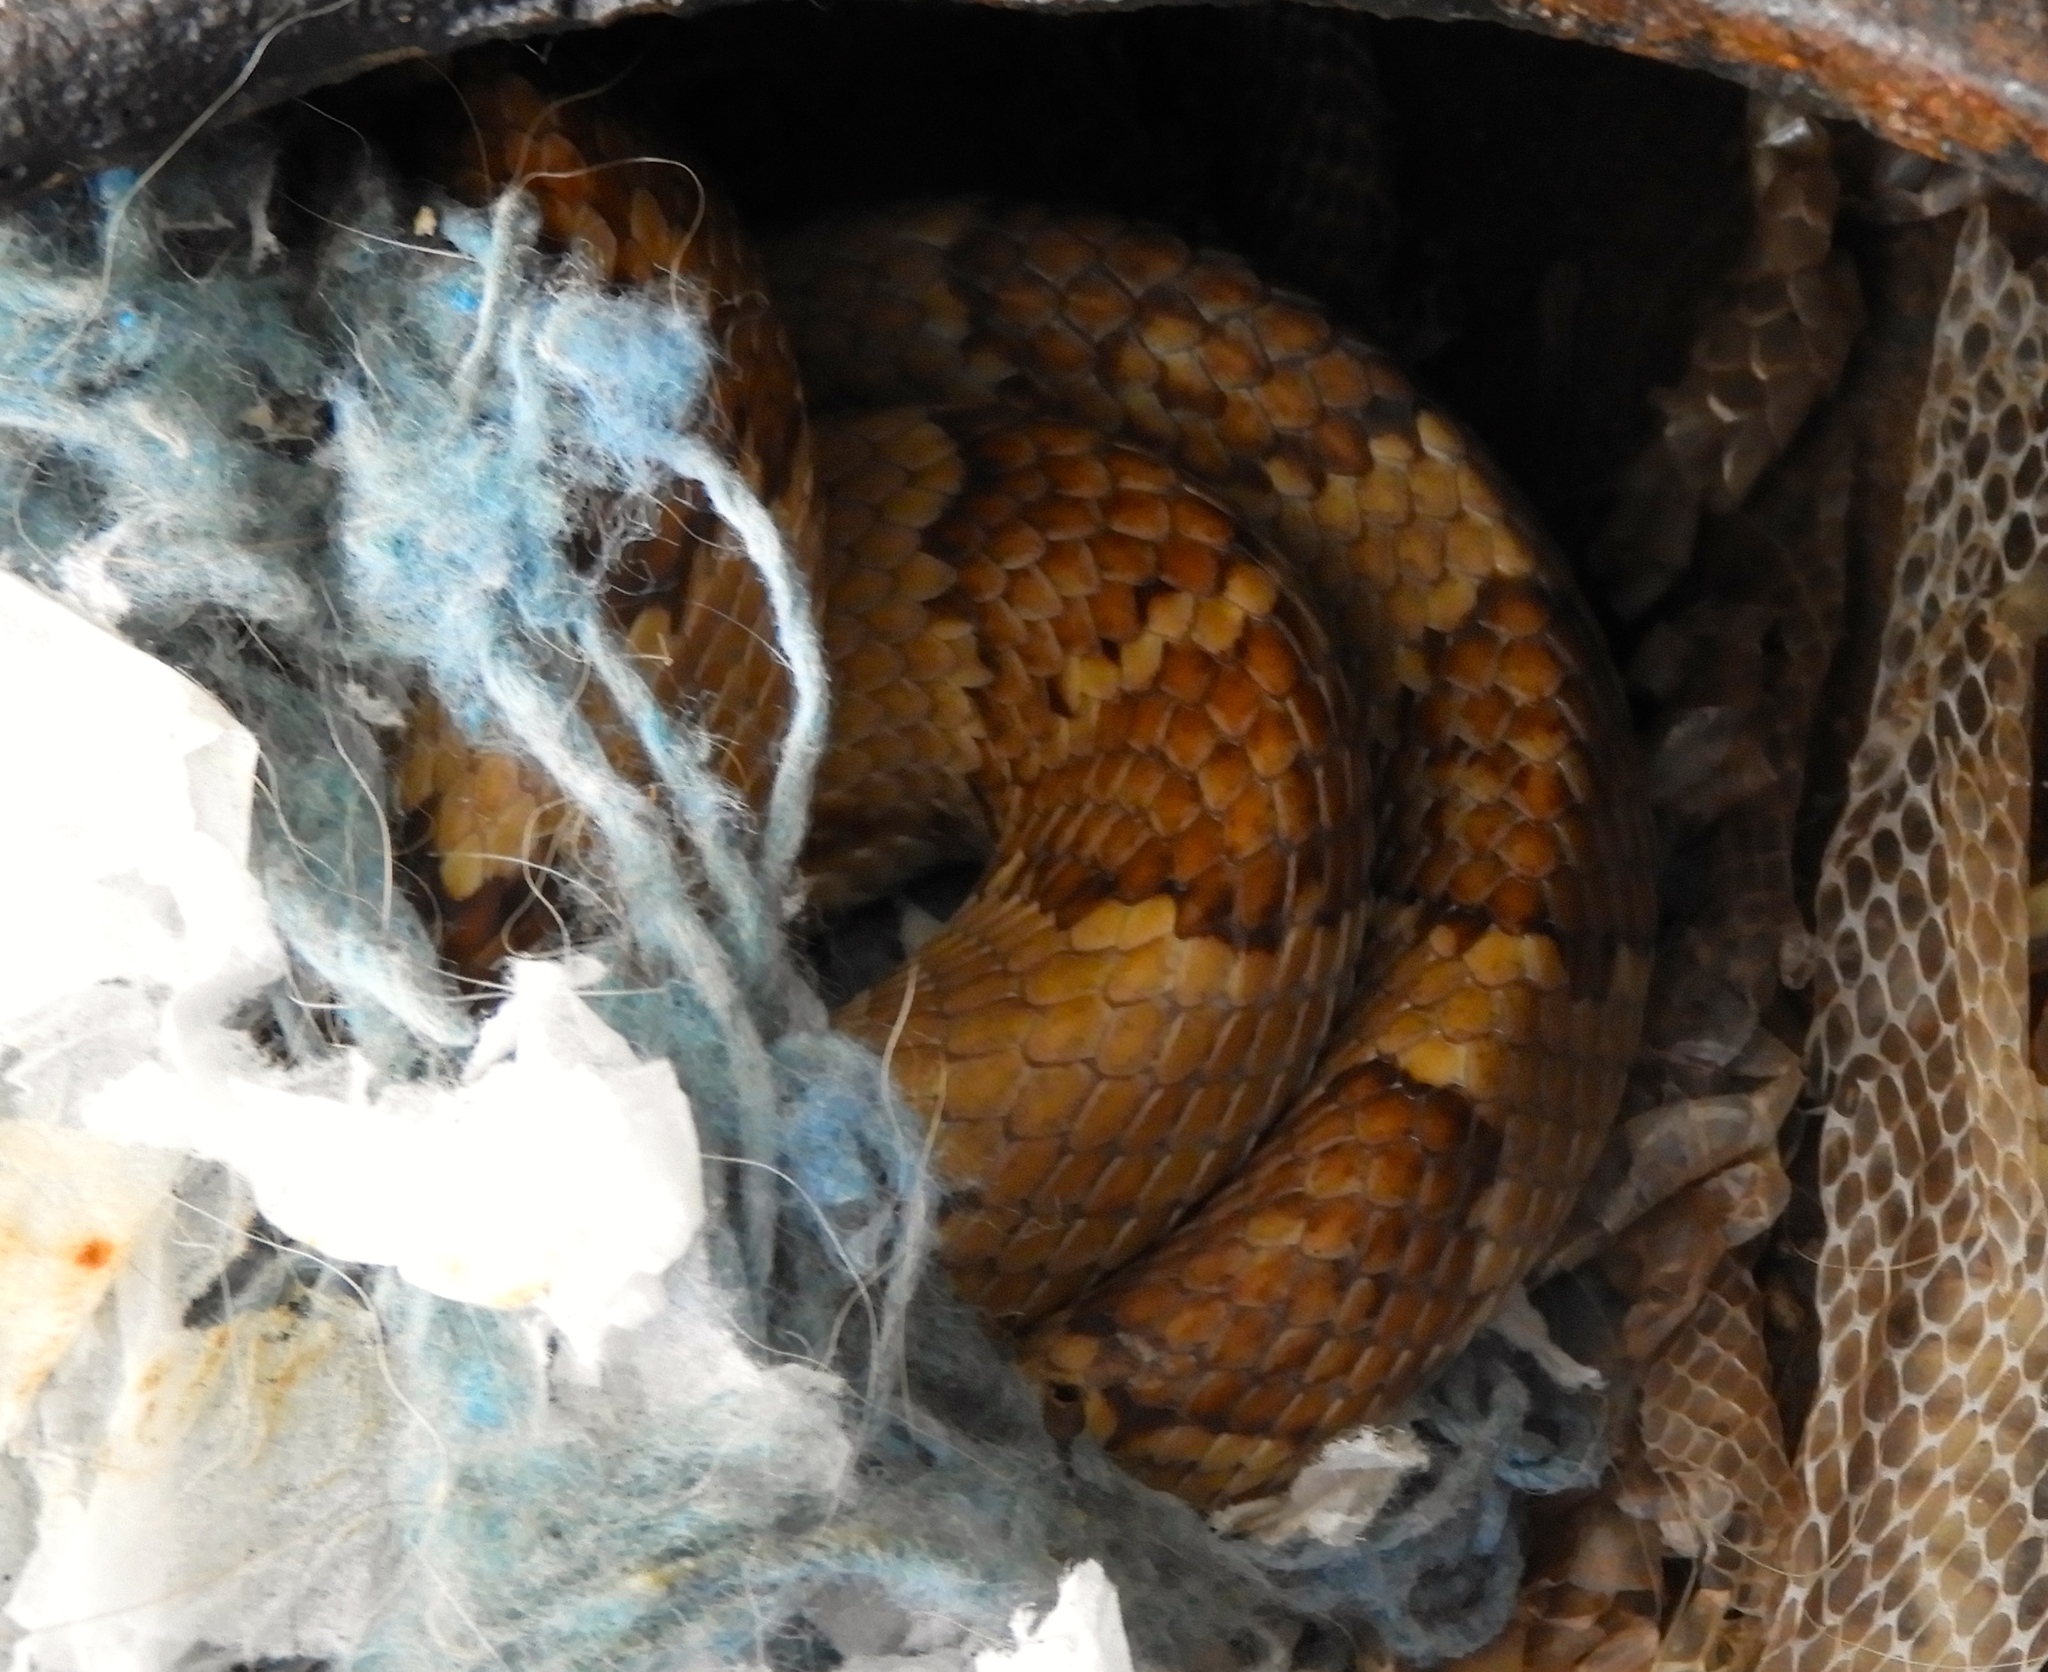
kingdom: Animalia
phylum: Chordata
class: Squamata
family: Colubridae
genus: Trimorphodon
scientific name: Trimorphodon paucimaculatus
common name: Sinaloan lyresnake
